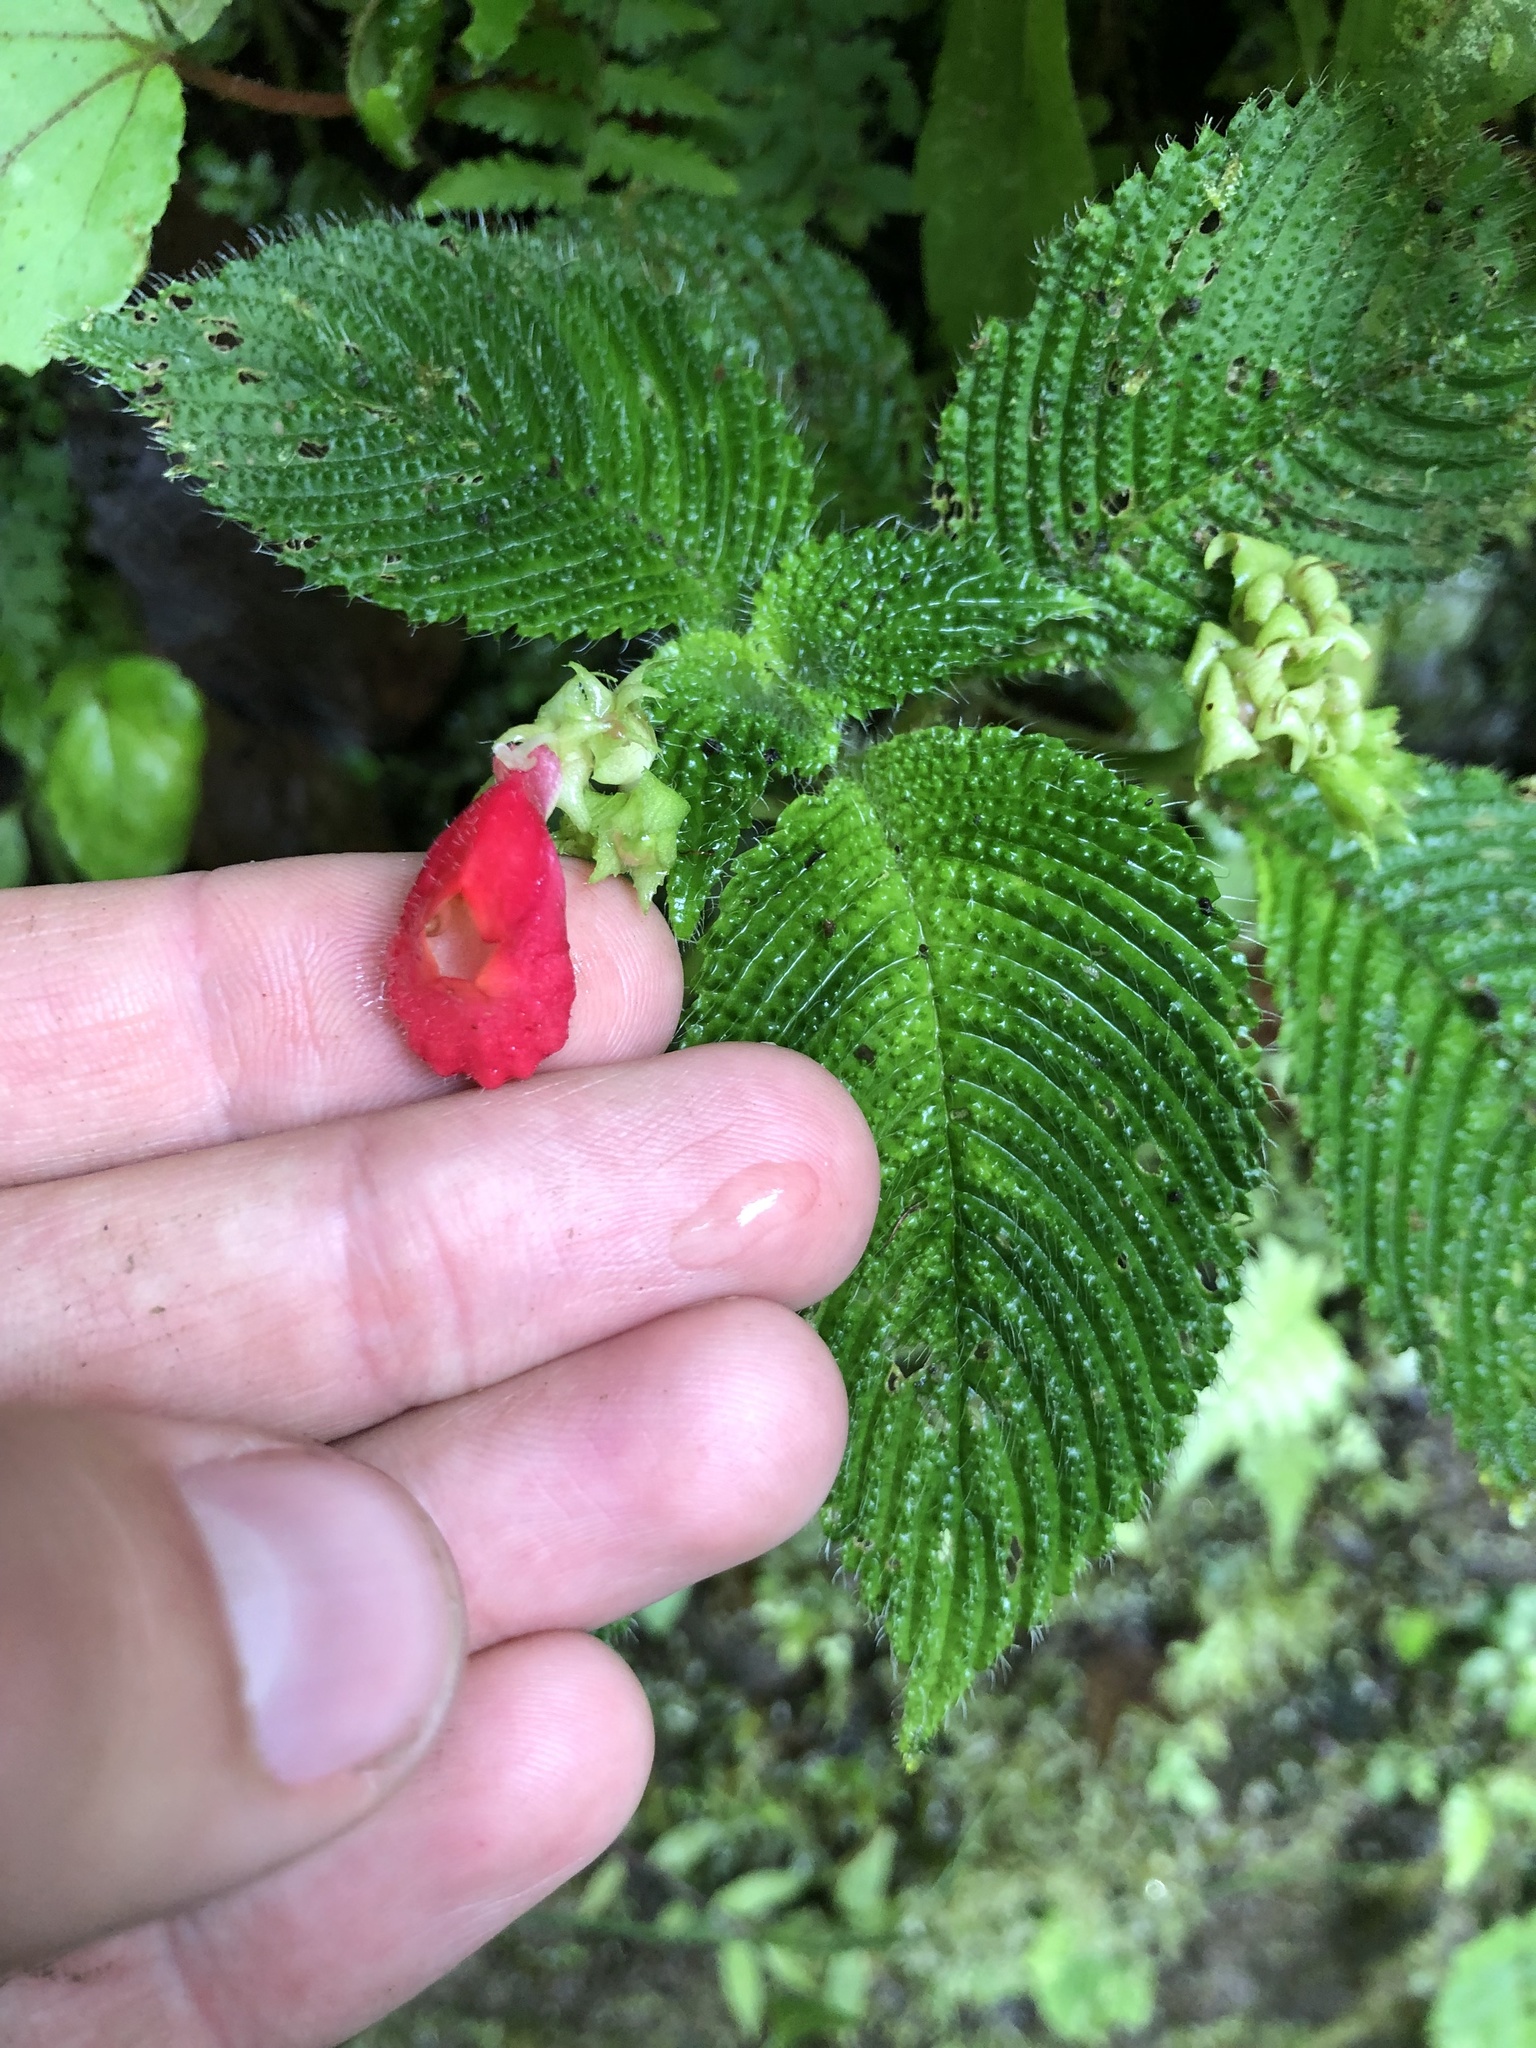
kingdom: Plantae
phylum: Tracheophyta
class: Magnoliopsida
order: Lamiales
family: Gesneriaceae
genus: Gasteranthus
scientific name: Gasteranthus quitensis
